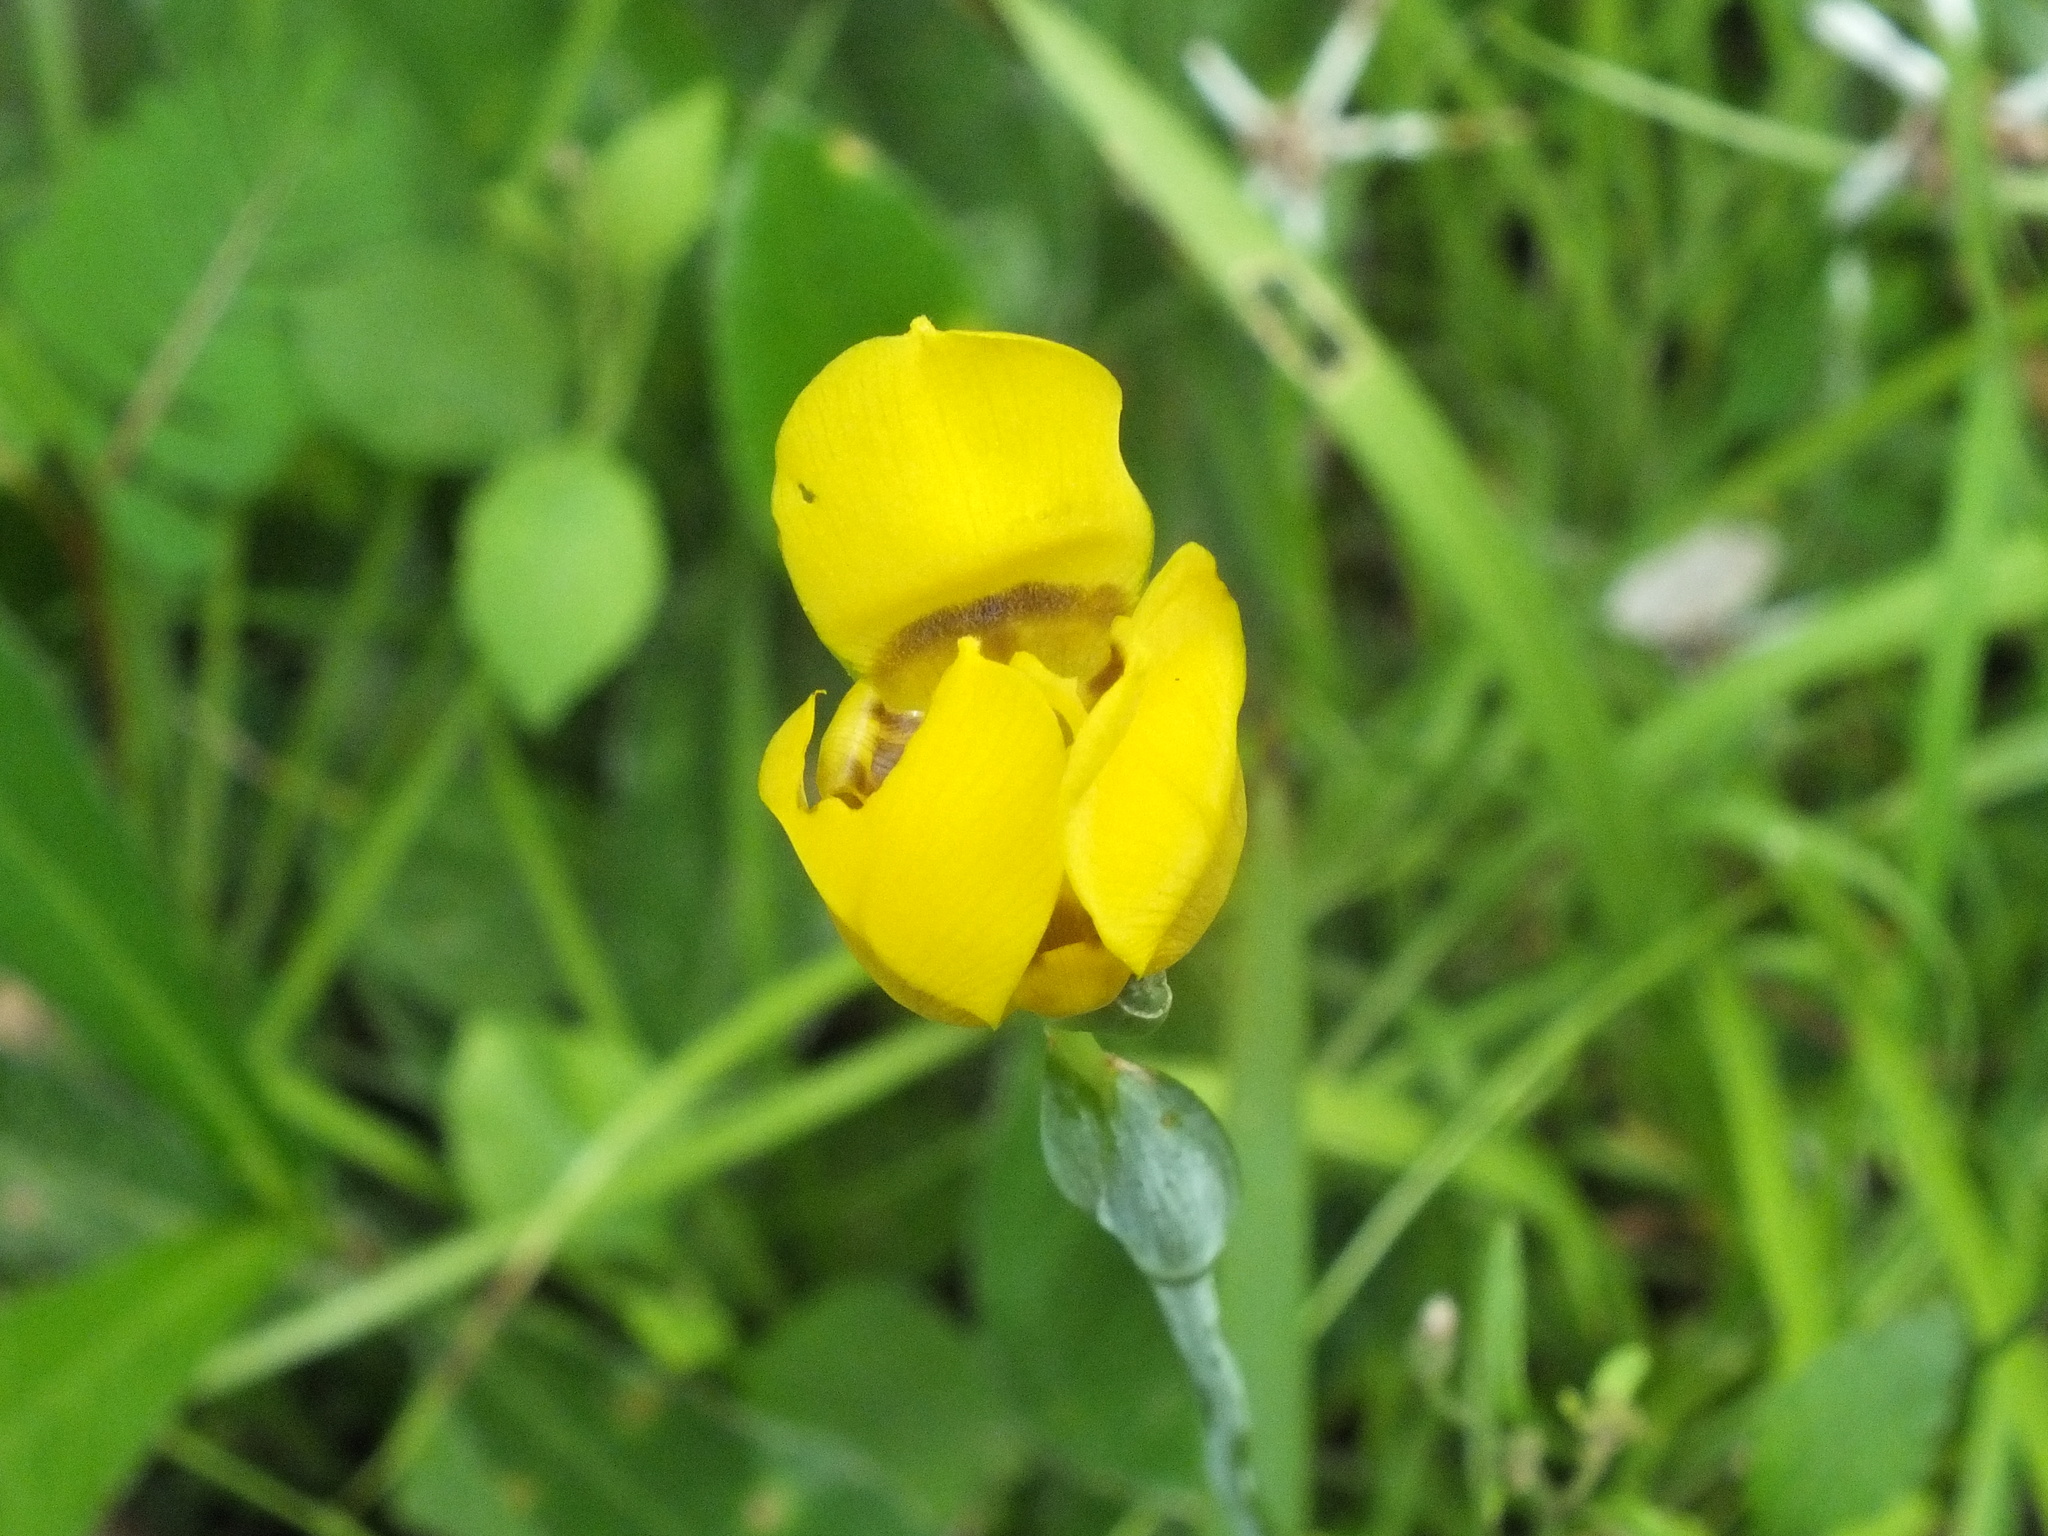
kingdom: Plantae
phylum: Tracheophyta
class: Liliopsida
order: Asparagales
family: Iridaceae
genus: Trimezia
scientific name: Trimezia martinicensis
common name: Martinique trimezia
